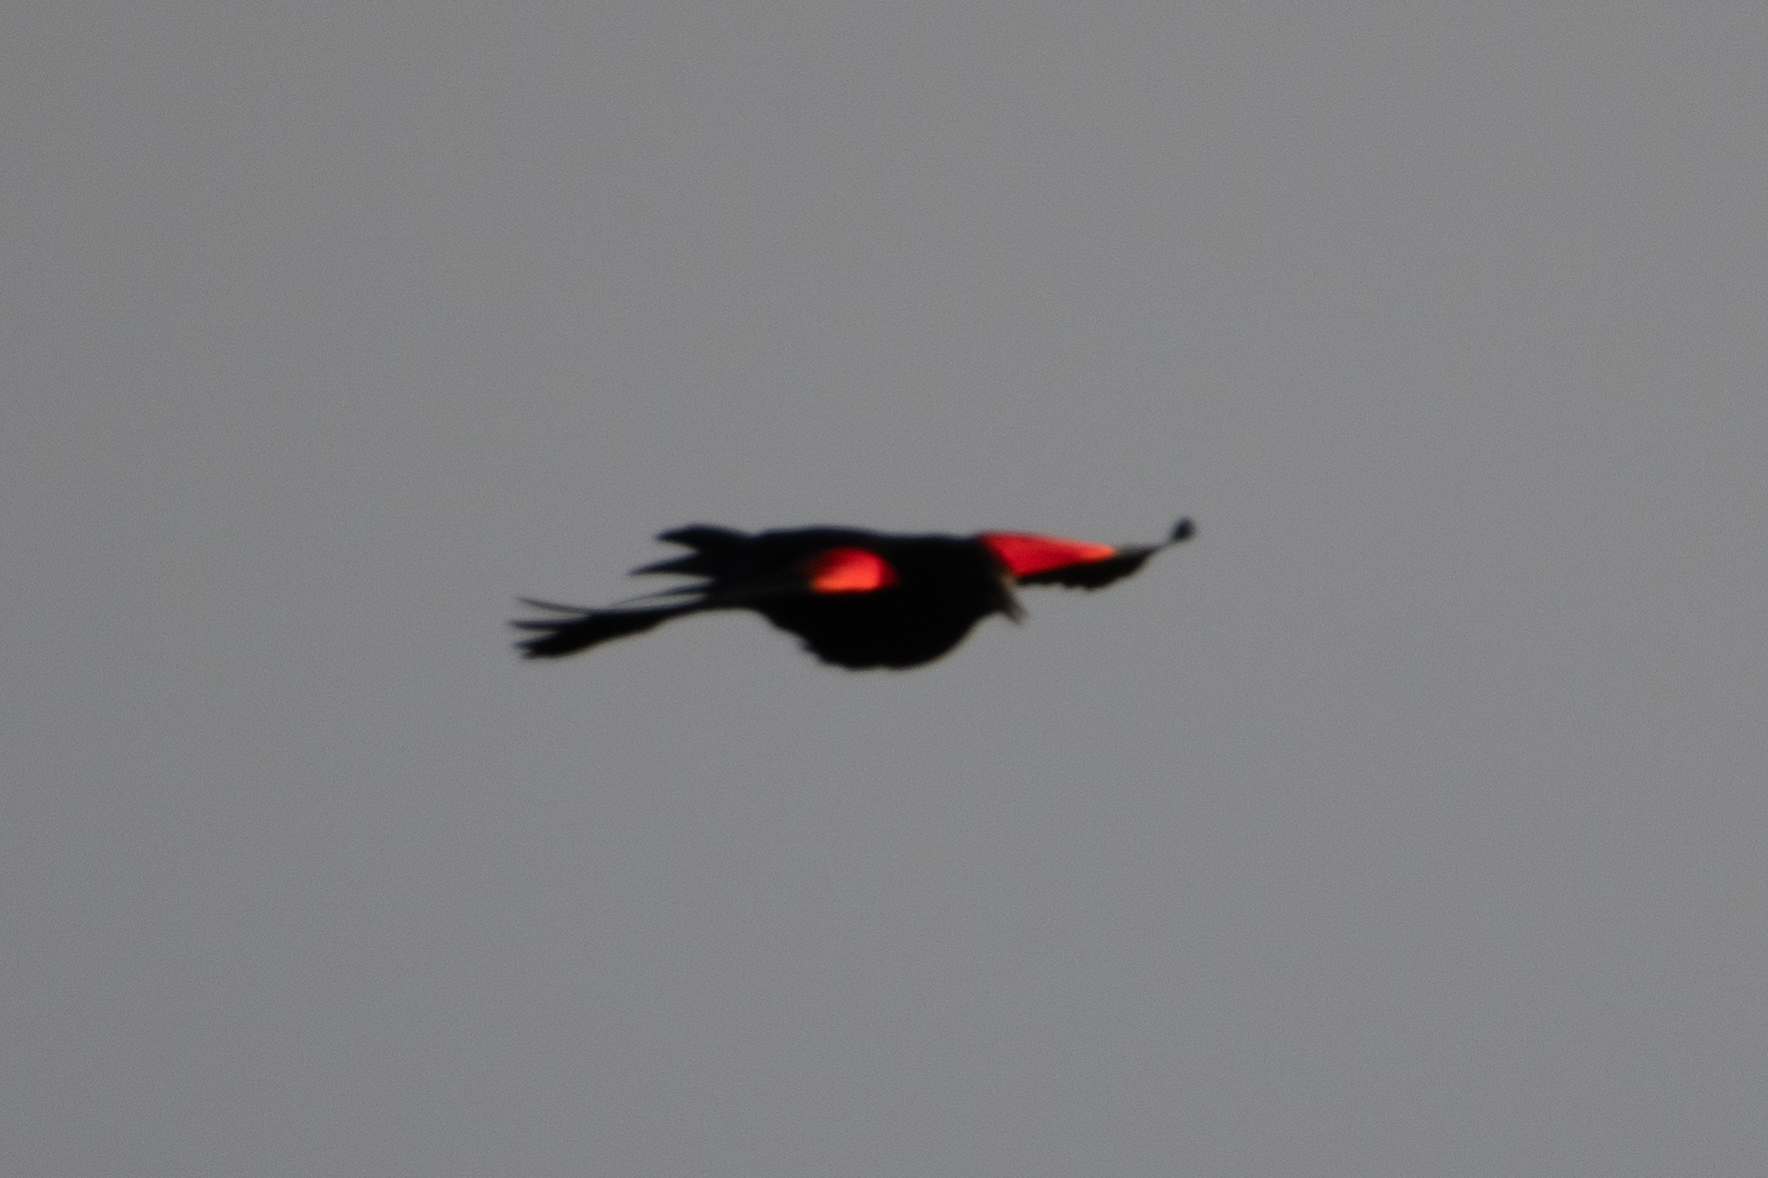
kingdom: Animalia
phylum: Chordata
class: Aves
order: Passeriformes
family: Icteridae
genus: Agelaius
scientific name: Agelaius phoeniceus
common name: Red-winged blackbird
